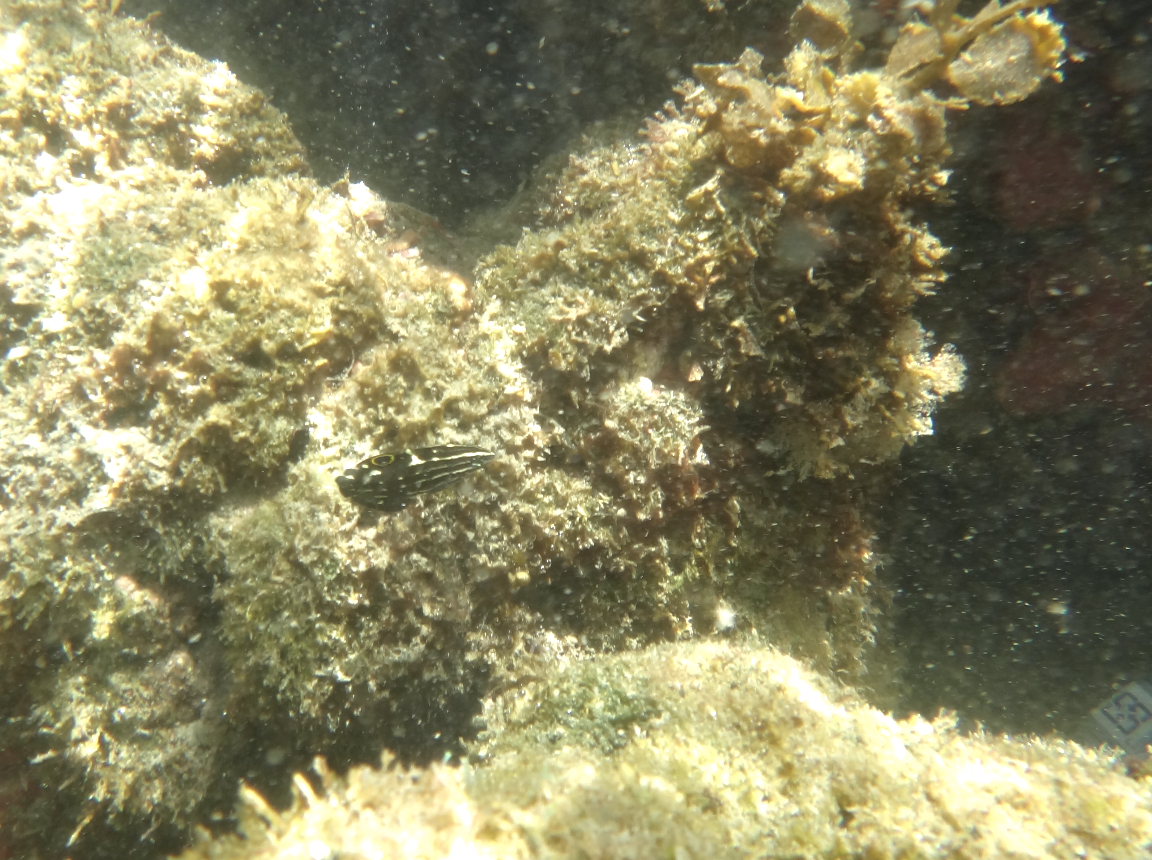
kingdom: Animalia
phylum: Chordata
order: Perciformes
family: Labridae
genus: Halichoeres
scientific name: Halichoeres
